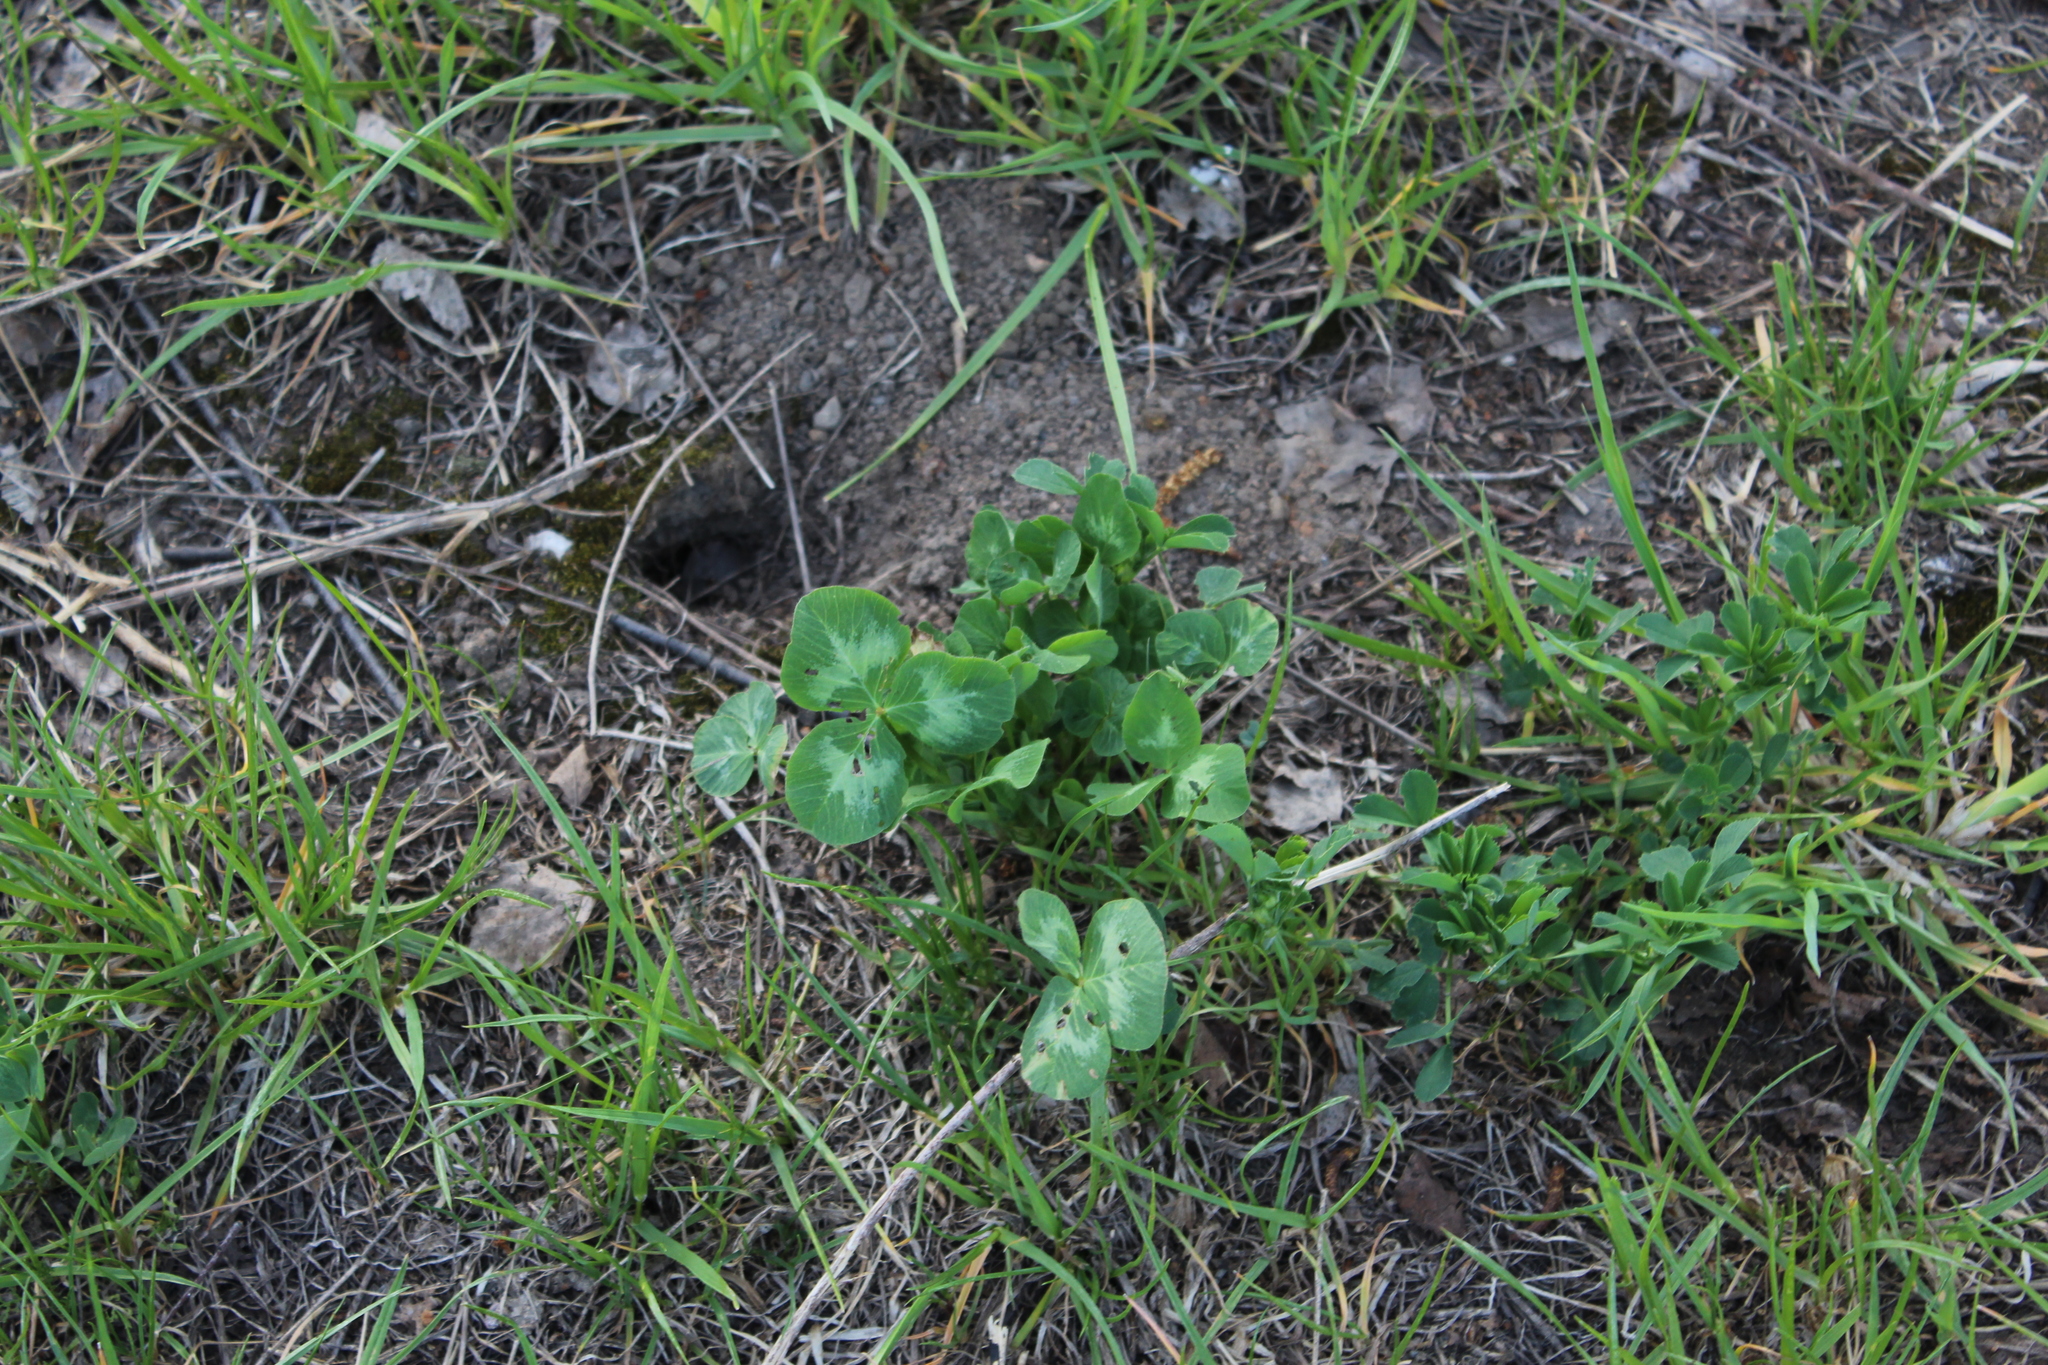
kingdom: Plantae
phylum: Tracheophyta
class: Magnoliopsida
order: Fabales
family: Fabaceae
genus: Trifolium
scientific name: Trifolium pratense
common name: Red clover
